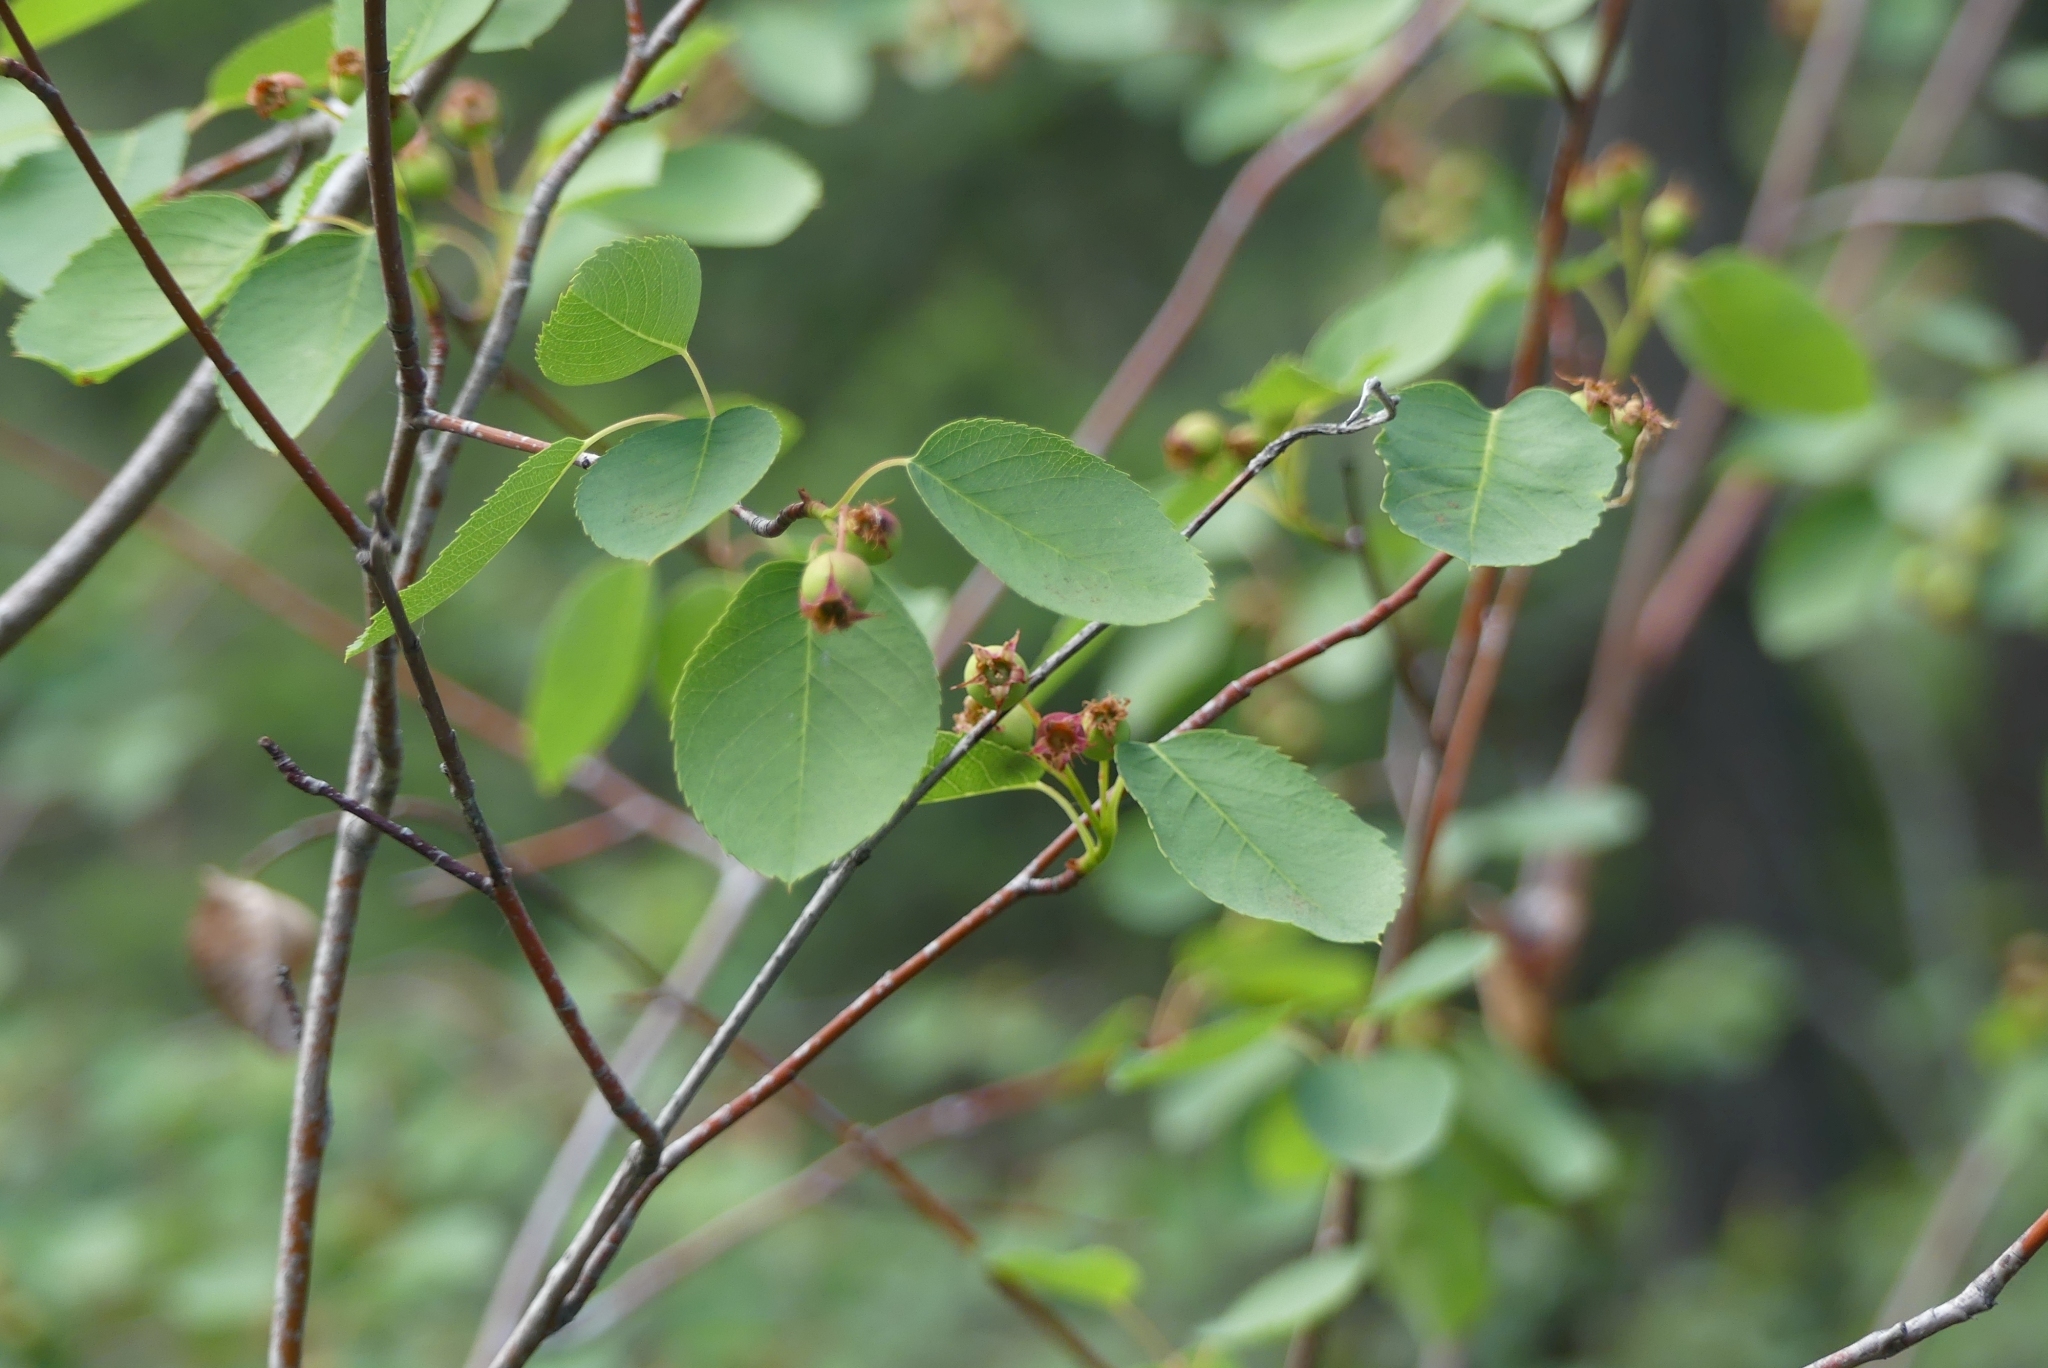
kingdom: Plantae
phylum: Tracheophyta
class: Magnoliopsida
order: Rosales
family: Rosaceae
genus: Amelanchier
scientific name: Amelanchier alnifolia
